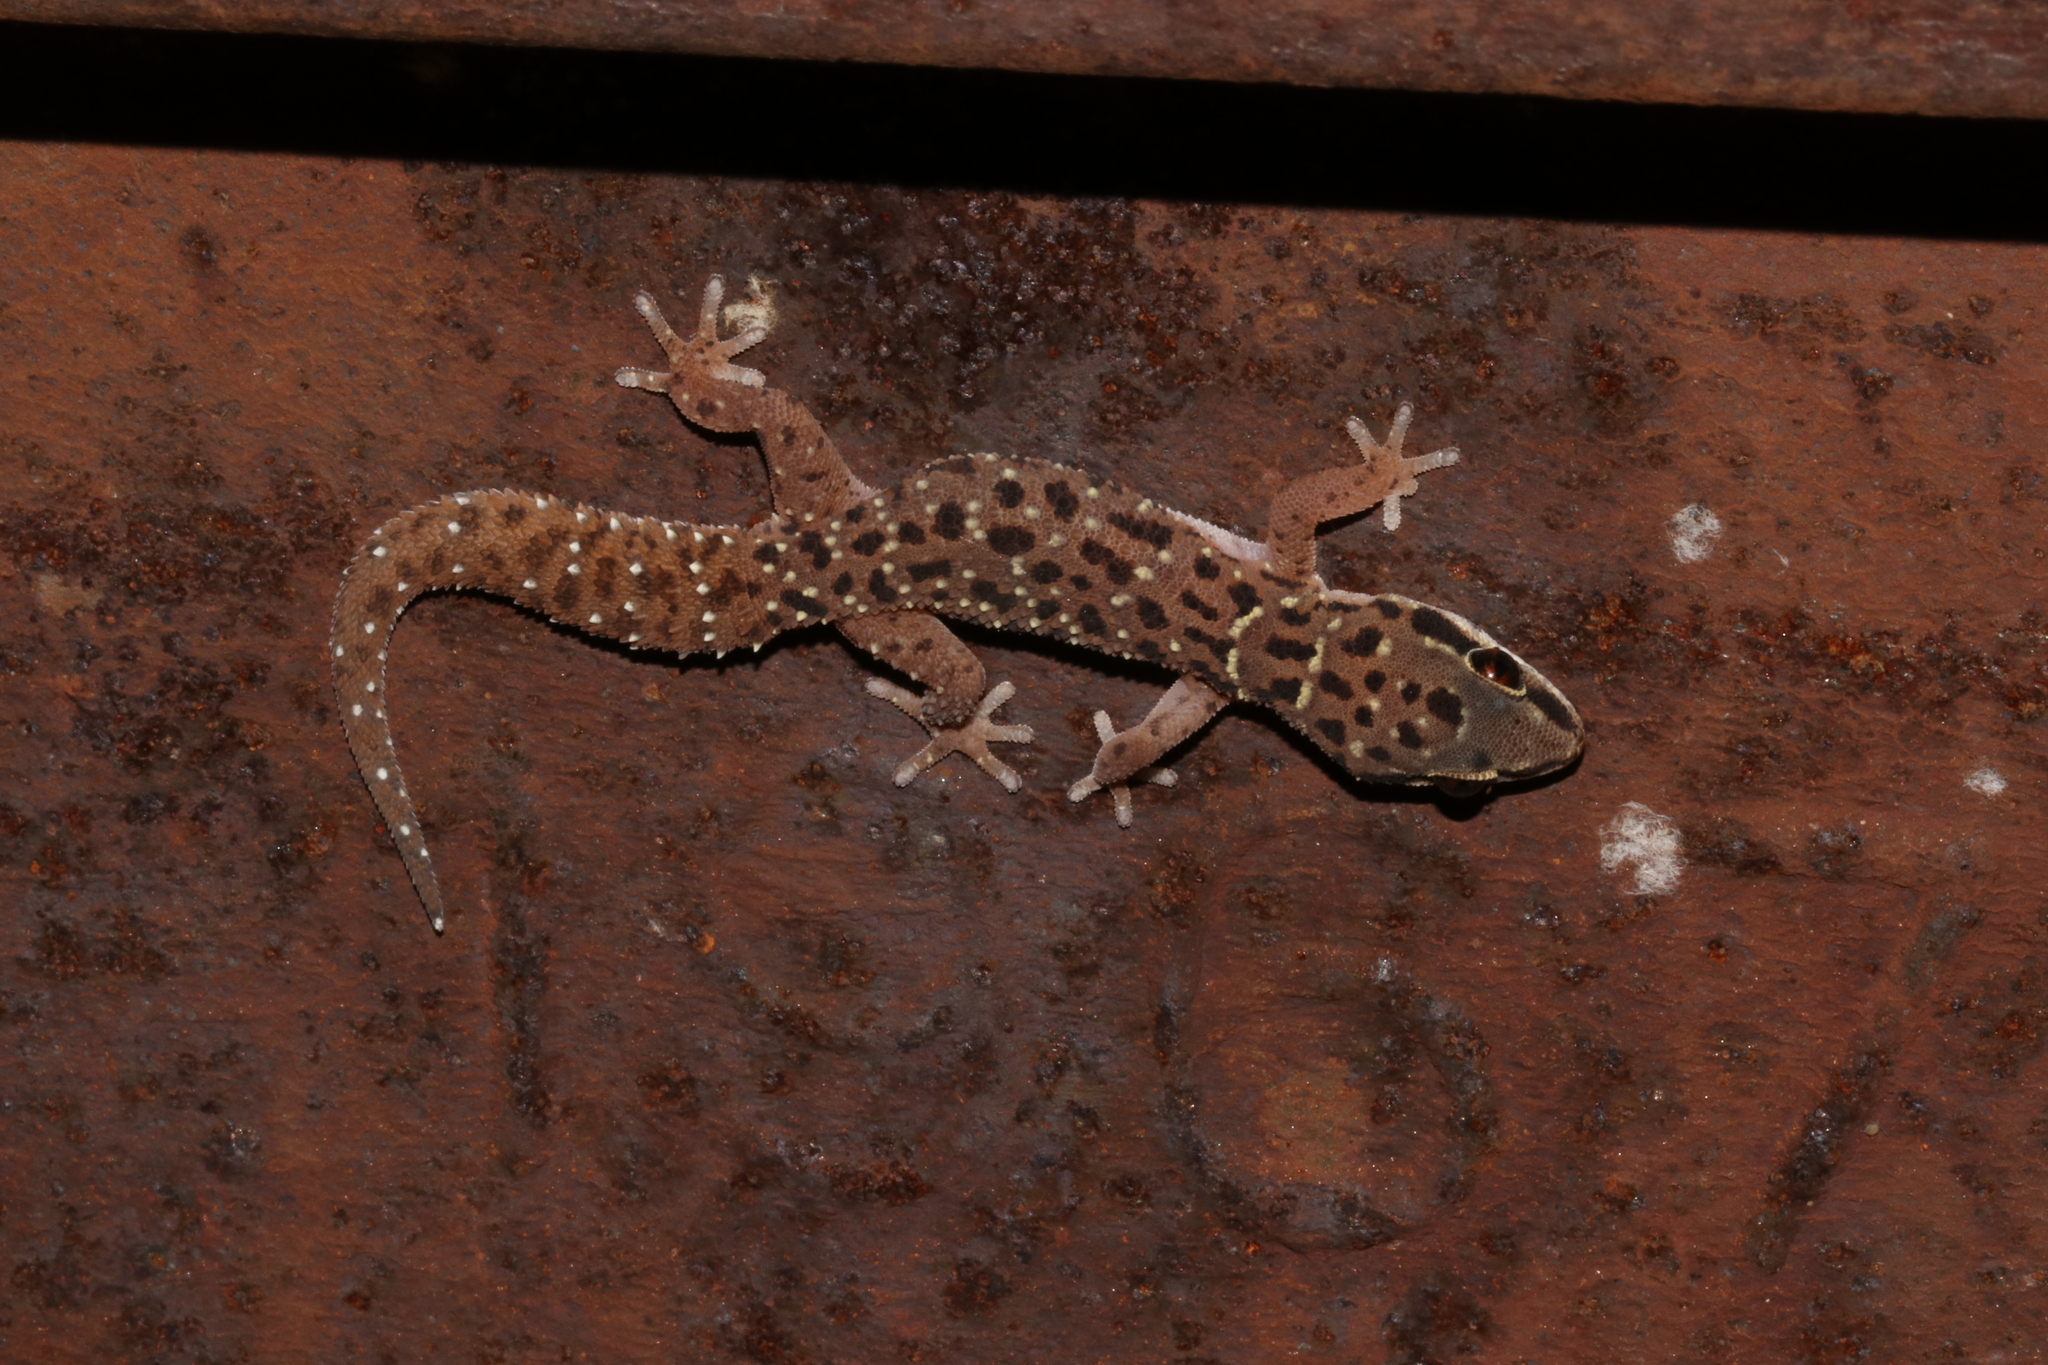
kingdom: Animalia
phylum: Chordata
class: Squamata
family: Gekkonidae
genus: Pachydactylus
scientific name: Pachydactylus affinis
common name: Transvaal gecko
